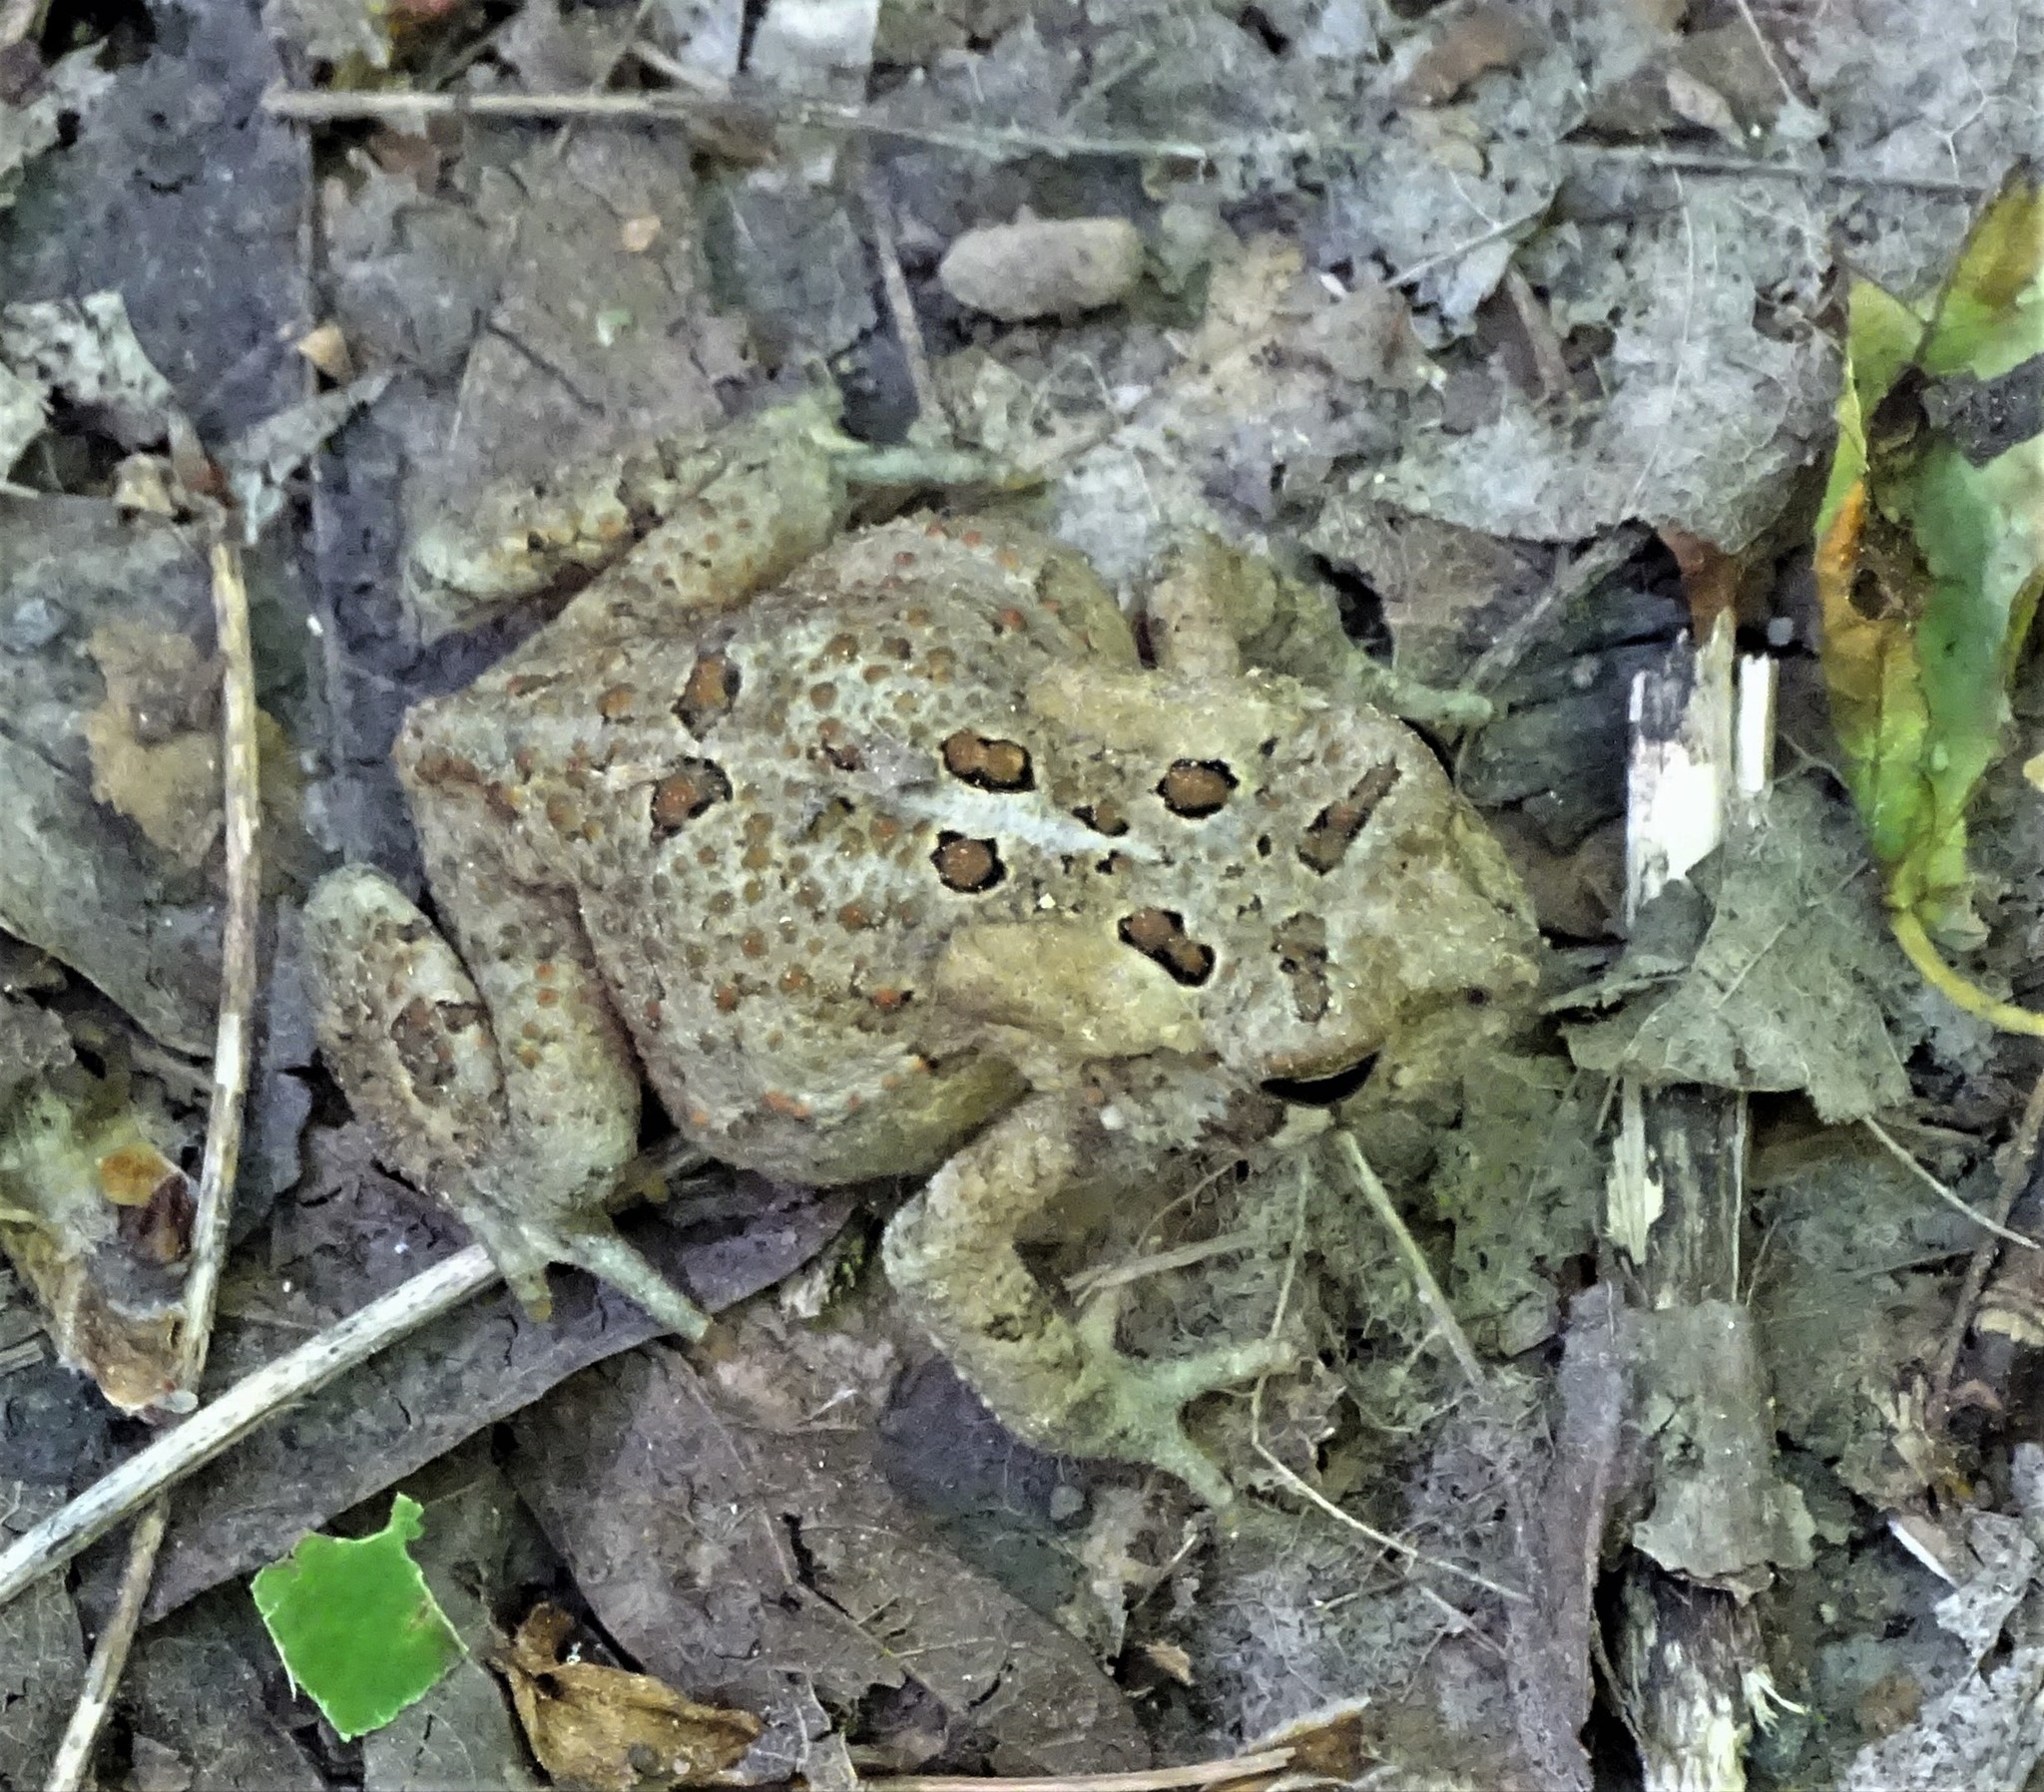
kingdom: Animalia
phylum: Chordata
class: Amphibia
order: Anura
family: Bufonidae
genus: Anaxyrus
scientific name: Anaxyrus americanus
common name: American toad
